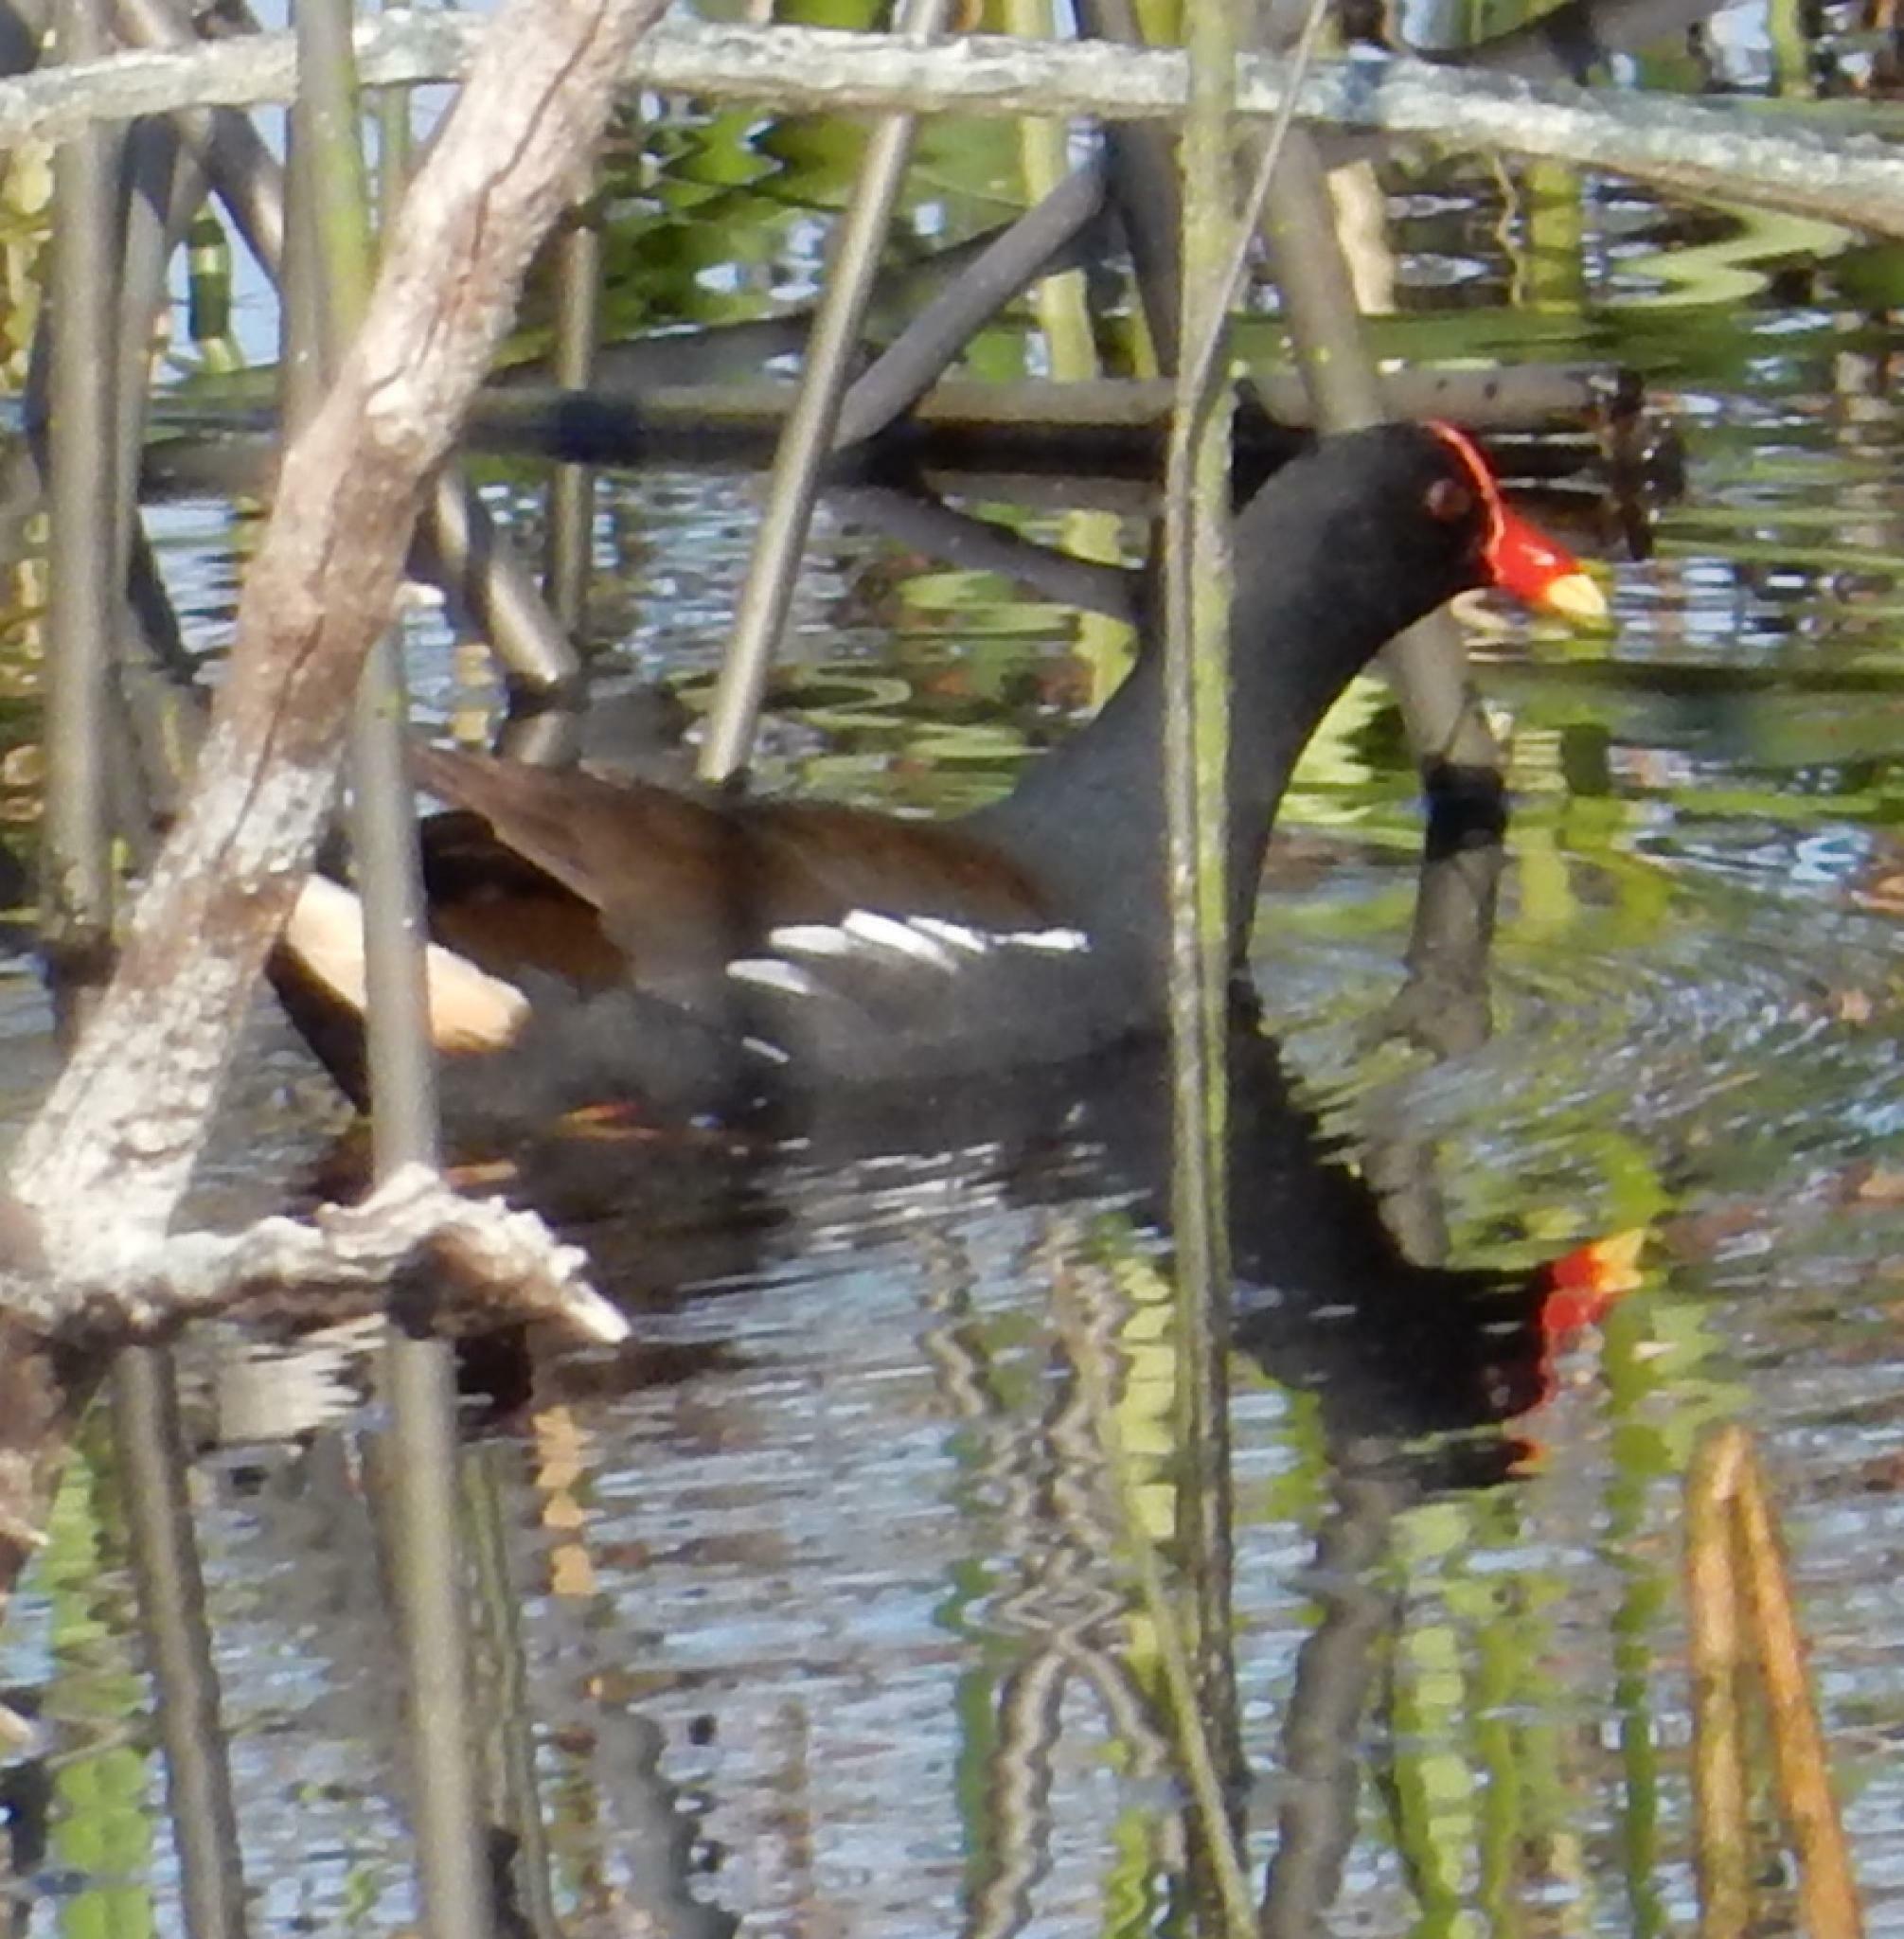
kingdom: Animalia
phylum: Chordata
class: Aves
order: Gruiformes
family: Rallidae
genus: Gallinula
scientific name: Gallinula chloropus
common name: Common moorhen
